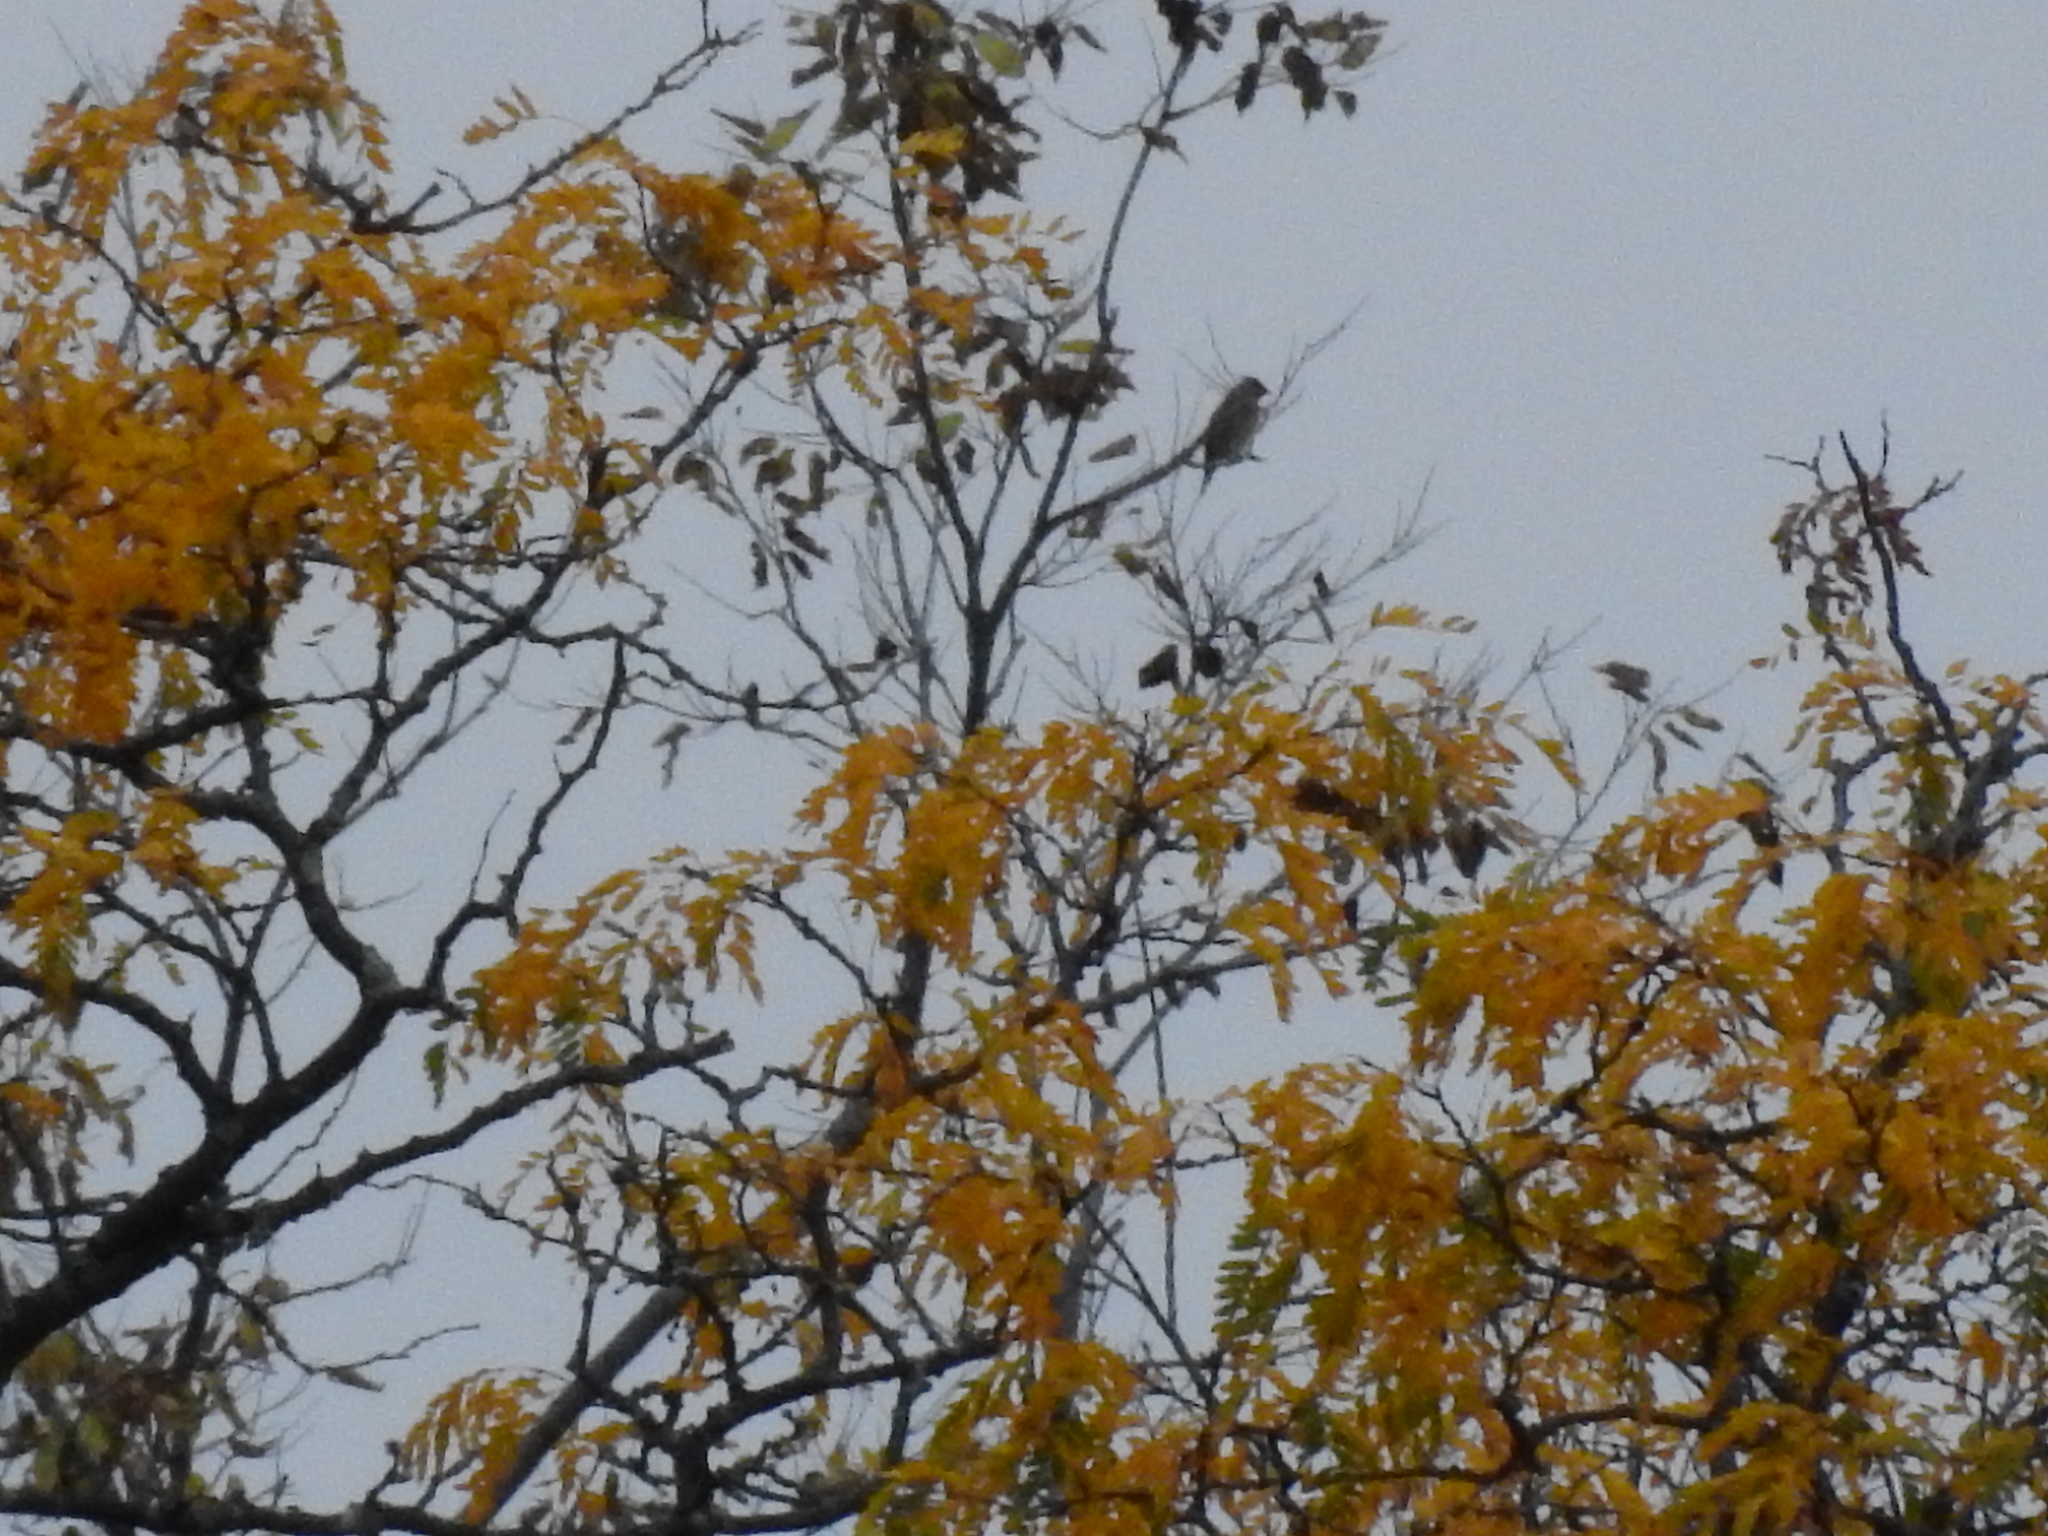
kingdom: Animalia
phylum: Chordata
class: Aves
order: Passeriformes
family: Bombycillidae
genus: Bombycilla
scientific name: Bombycilla cedrorum
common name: Cedar waxwing
